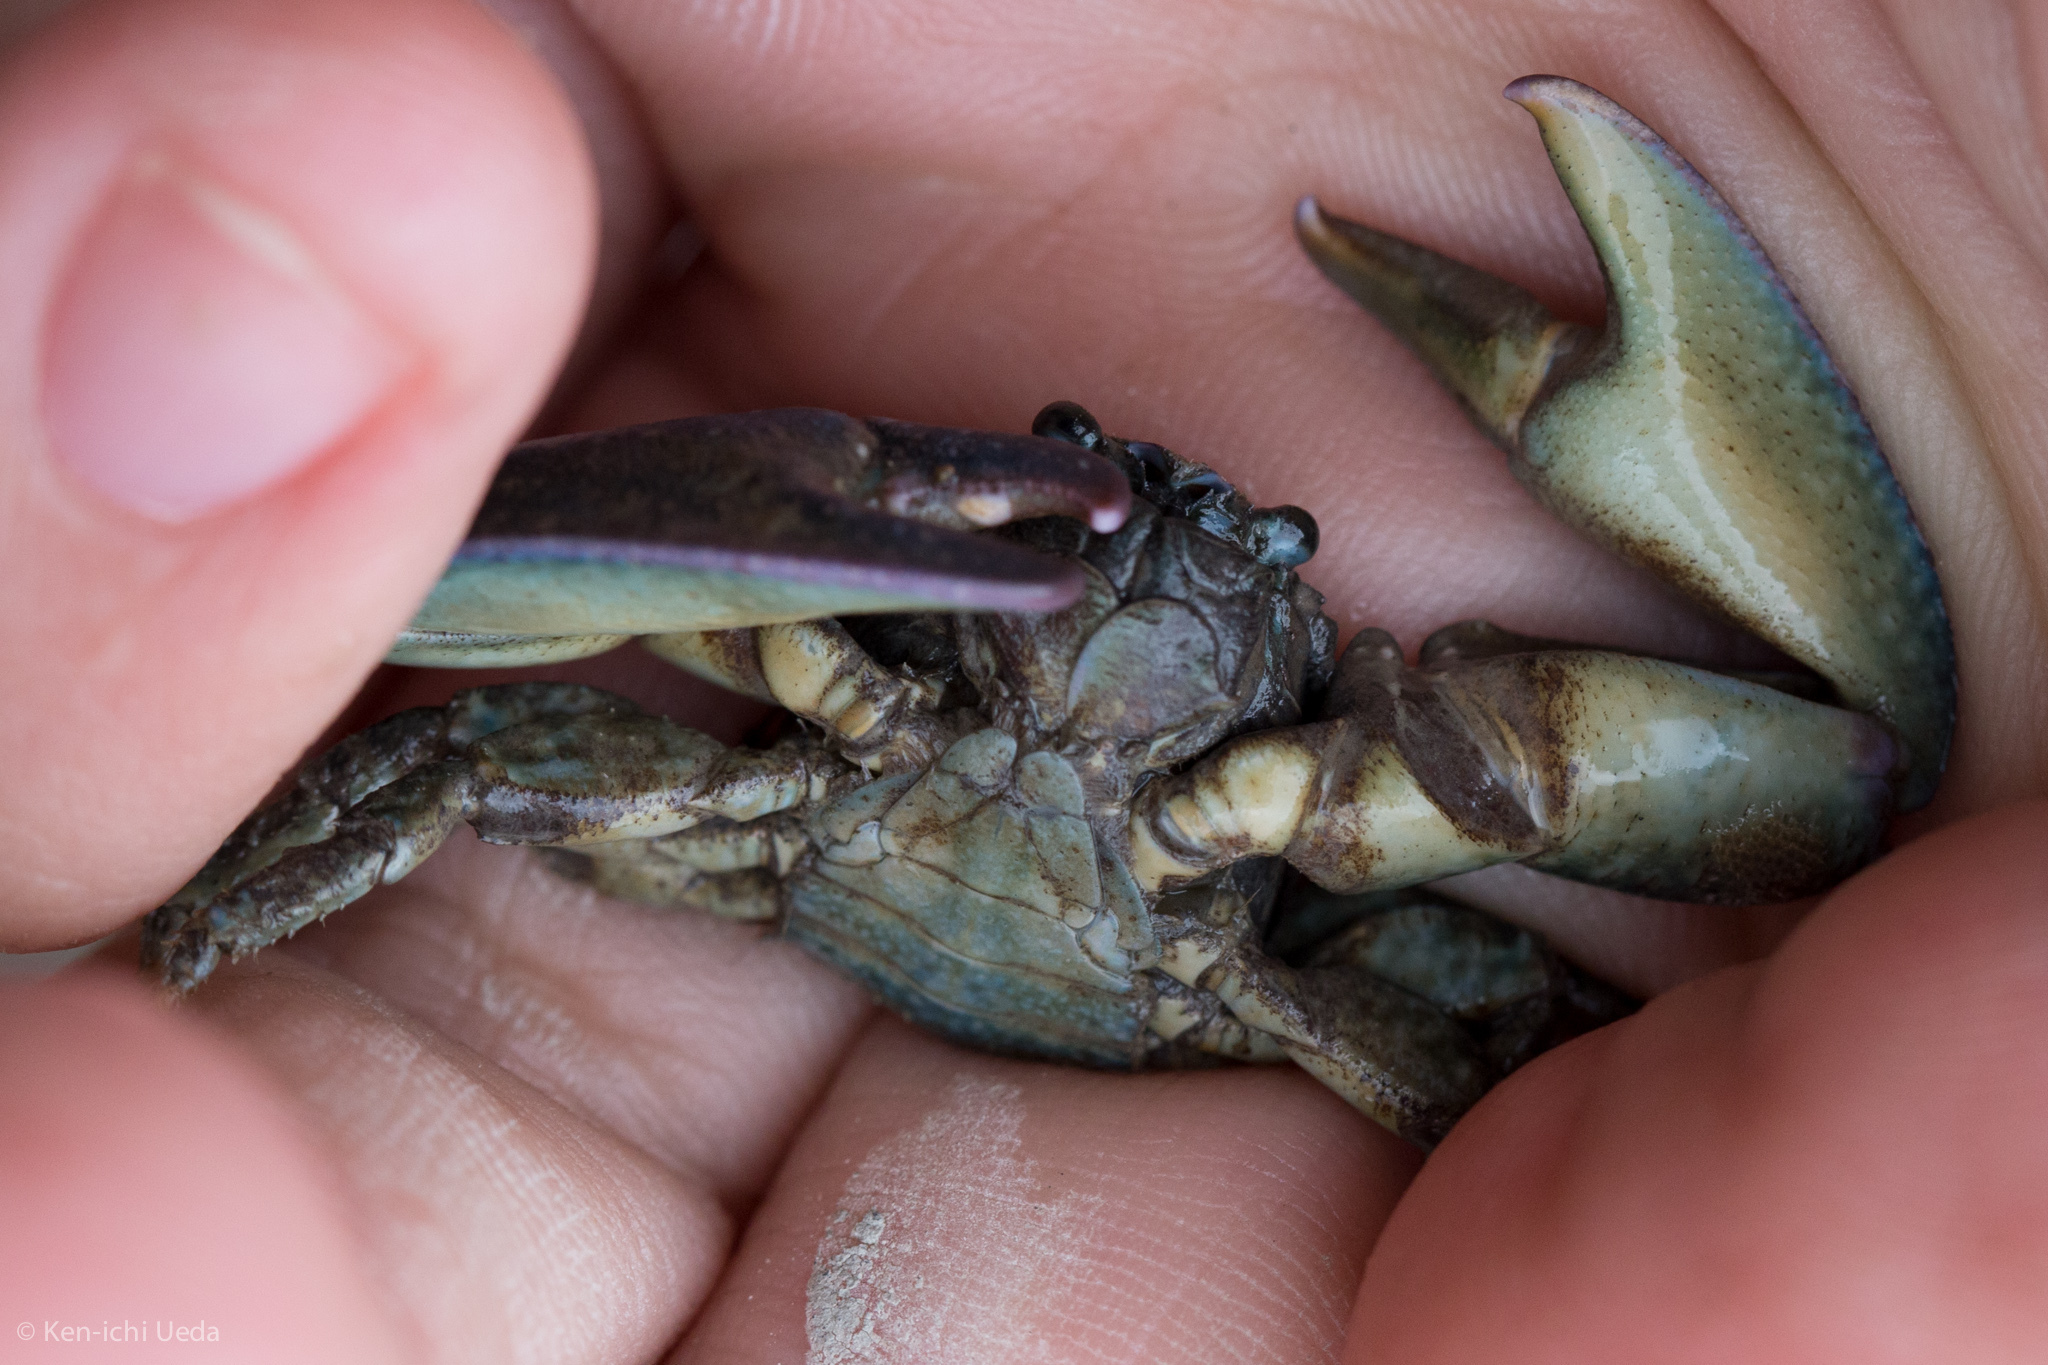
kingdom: Animalia
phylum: Arthropoda
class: Malacostraca
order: Decapoda
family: Porcellanidae
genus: Petrolisthes
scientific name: Petrolisthes elongatus
